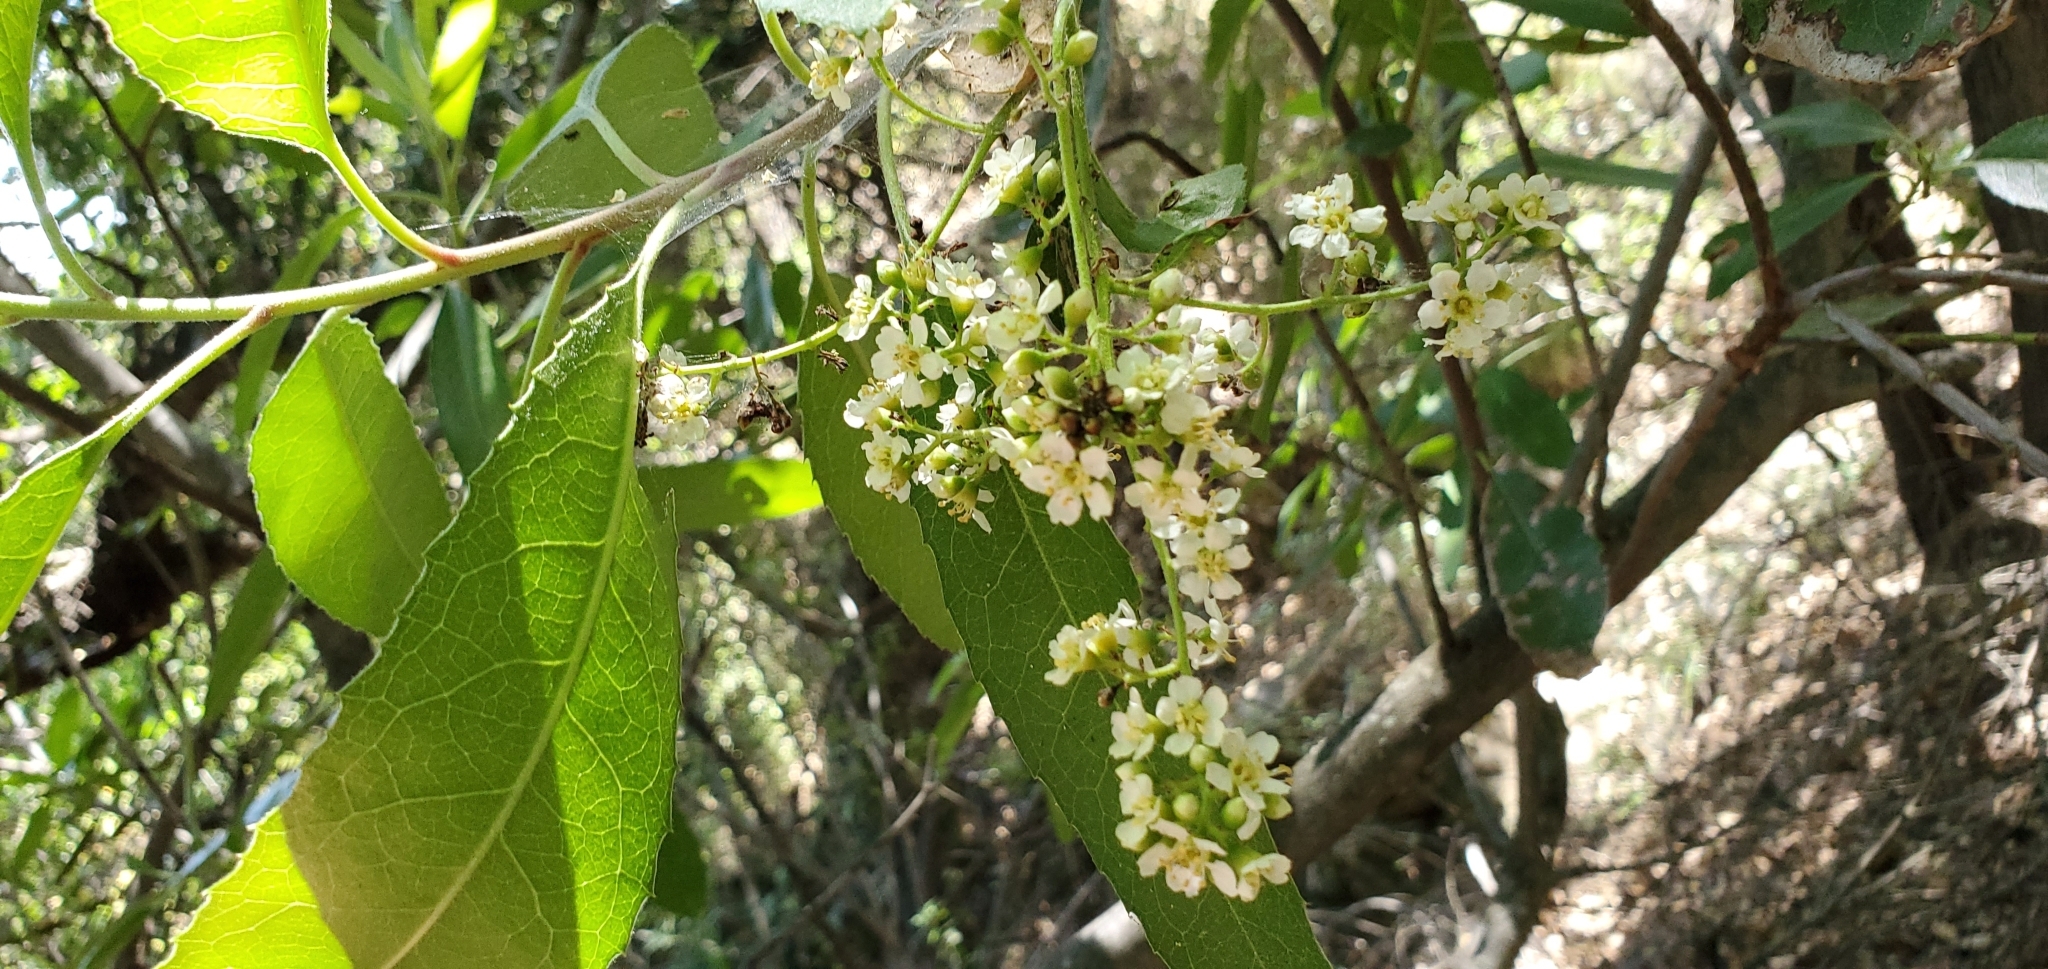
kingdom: Plantae
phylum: Tracheophyta
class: Magnoliopsida
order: Rosales
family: Rosaceae
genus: Heteromeles
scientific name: Heteromeles arbutifolia
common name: California-holly
